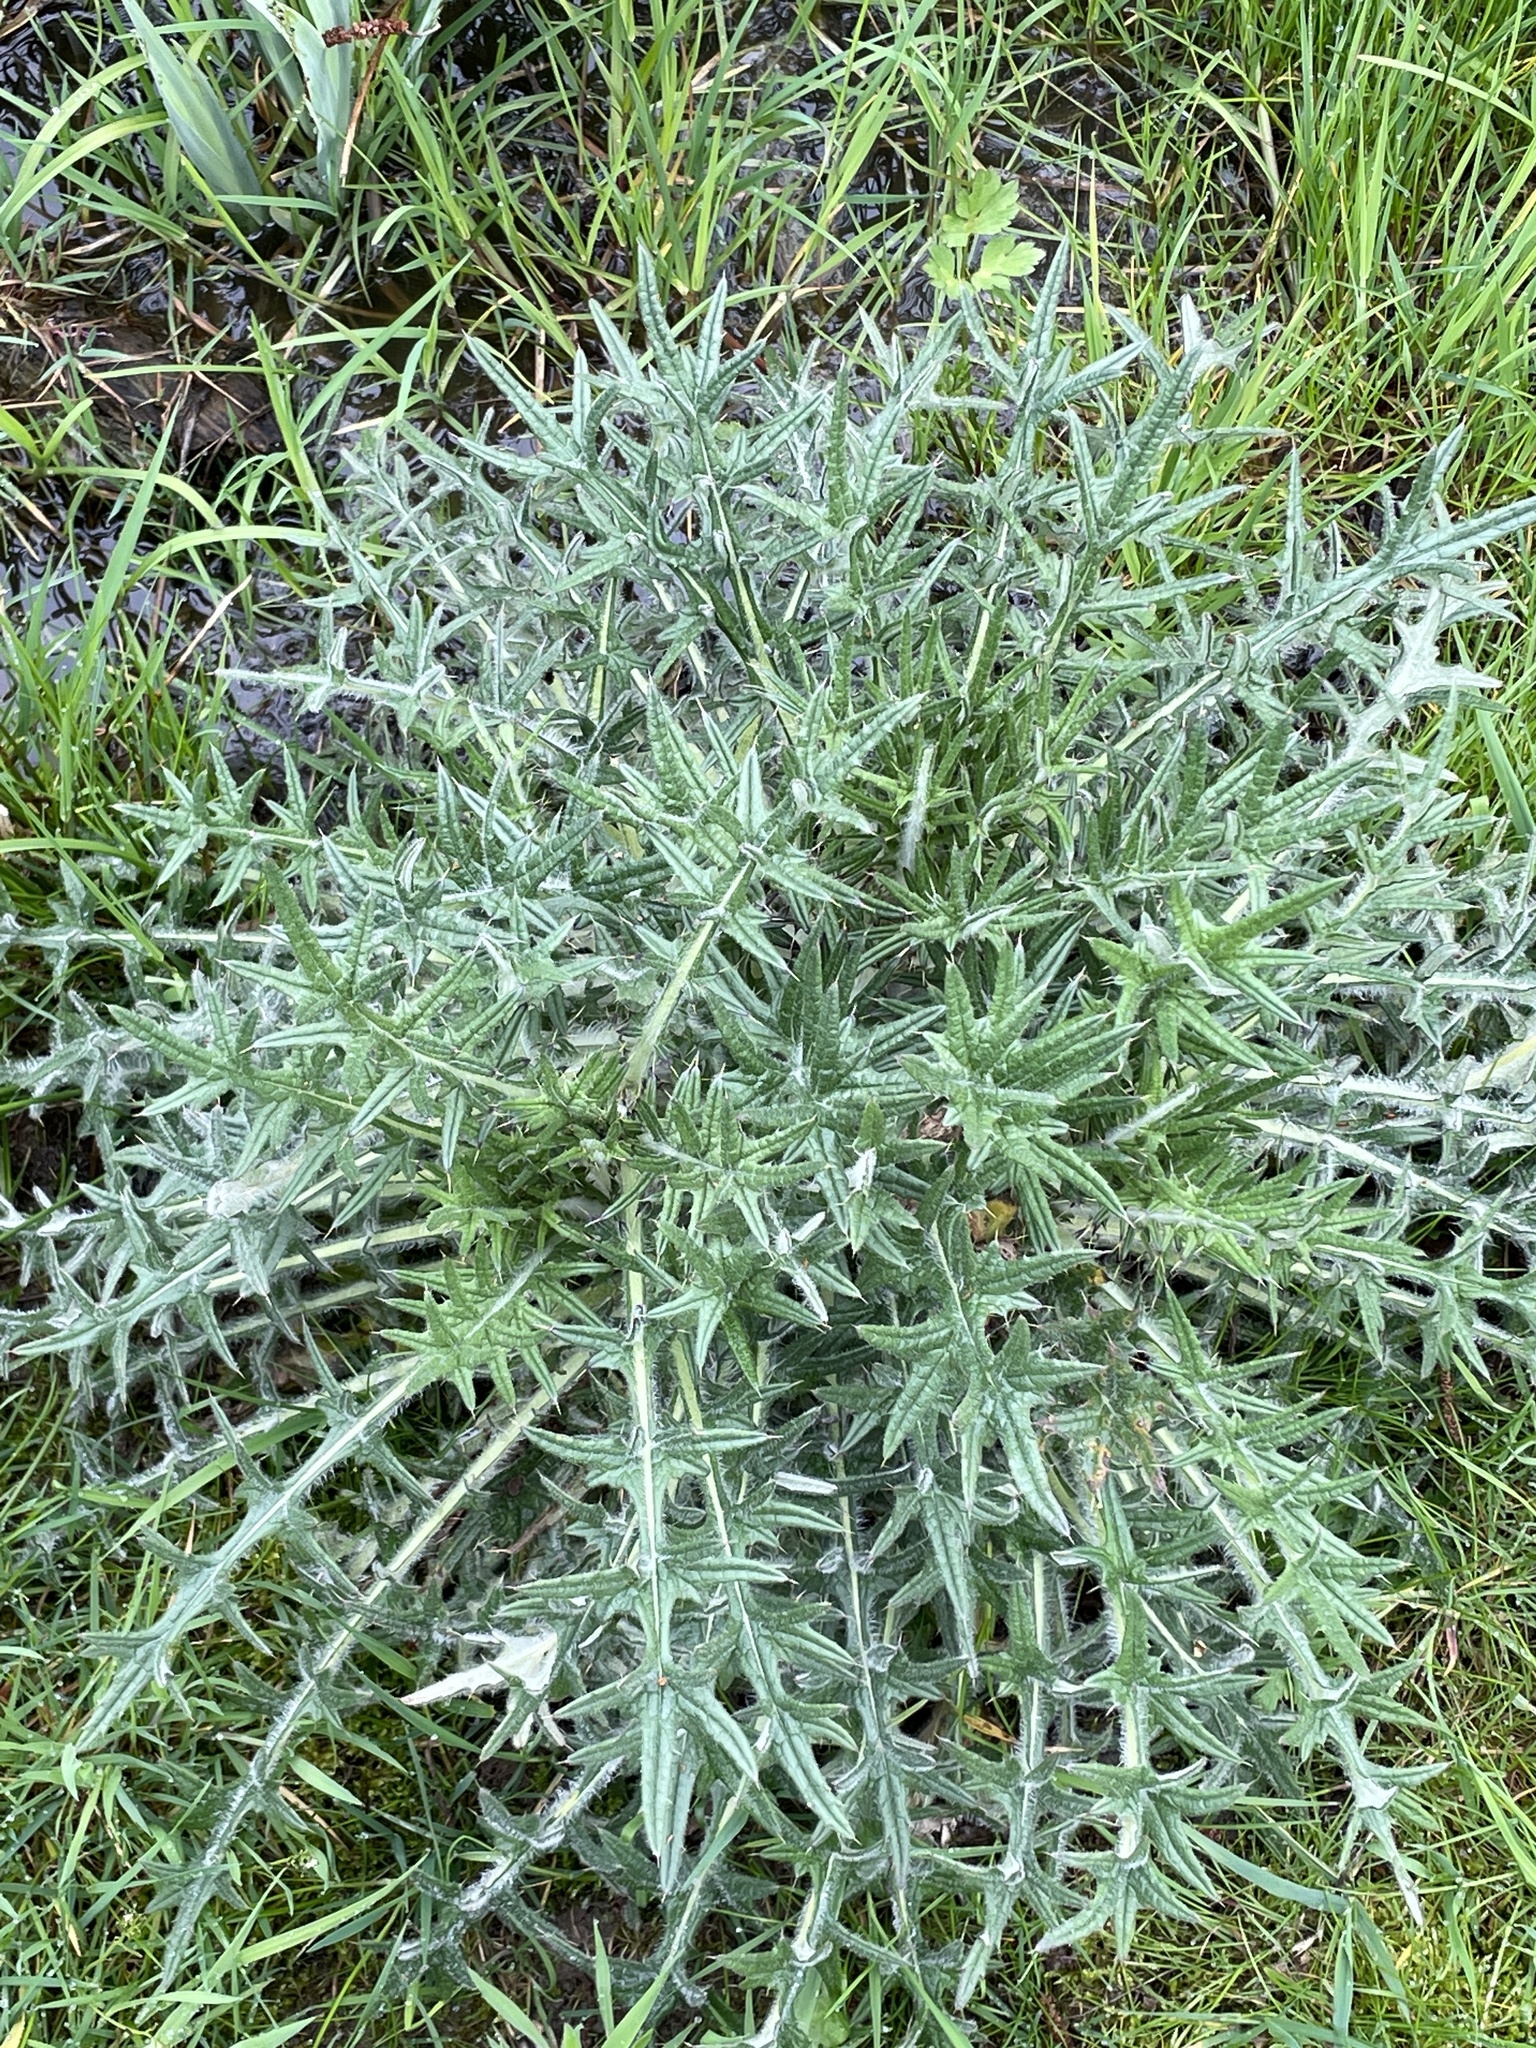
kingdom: Plantae
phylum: Tracheophyta
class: Magnoliopsida
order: Asterales
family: Asteraceae
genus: Cirsium
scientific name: Cirsium vulgare
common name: Bull thistle
